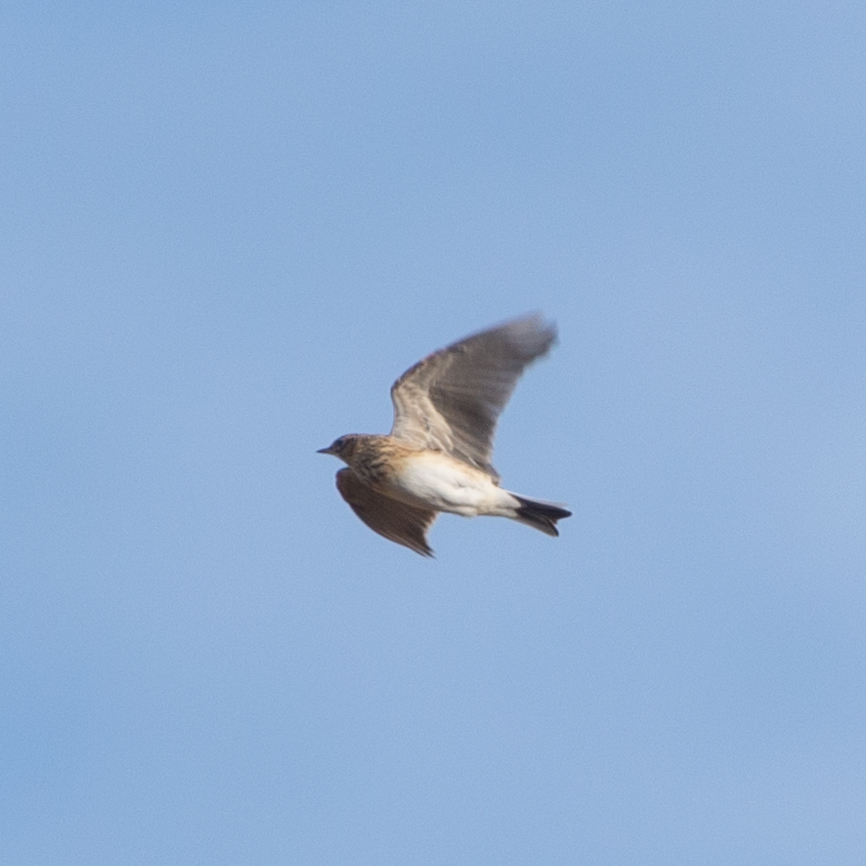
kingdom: Animalia
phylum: Chordata
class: Aves
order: Passeriformes
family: Alaudidae
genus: Alauda
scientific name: Alauda arvensis
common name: Eurasian skylark
